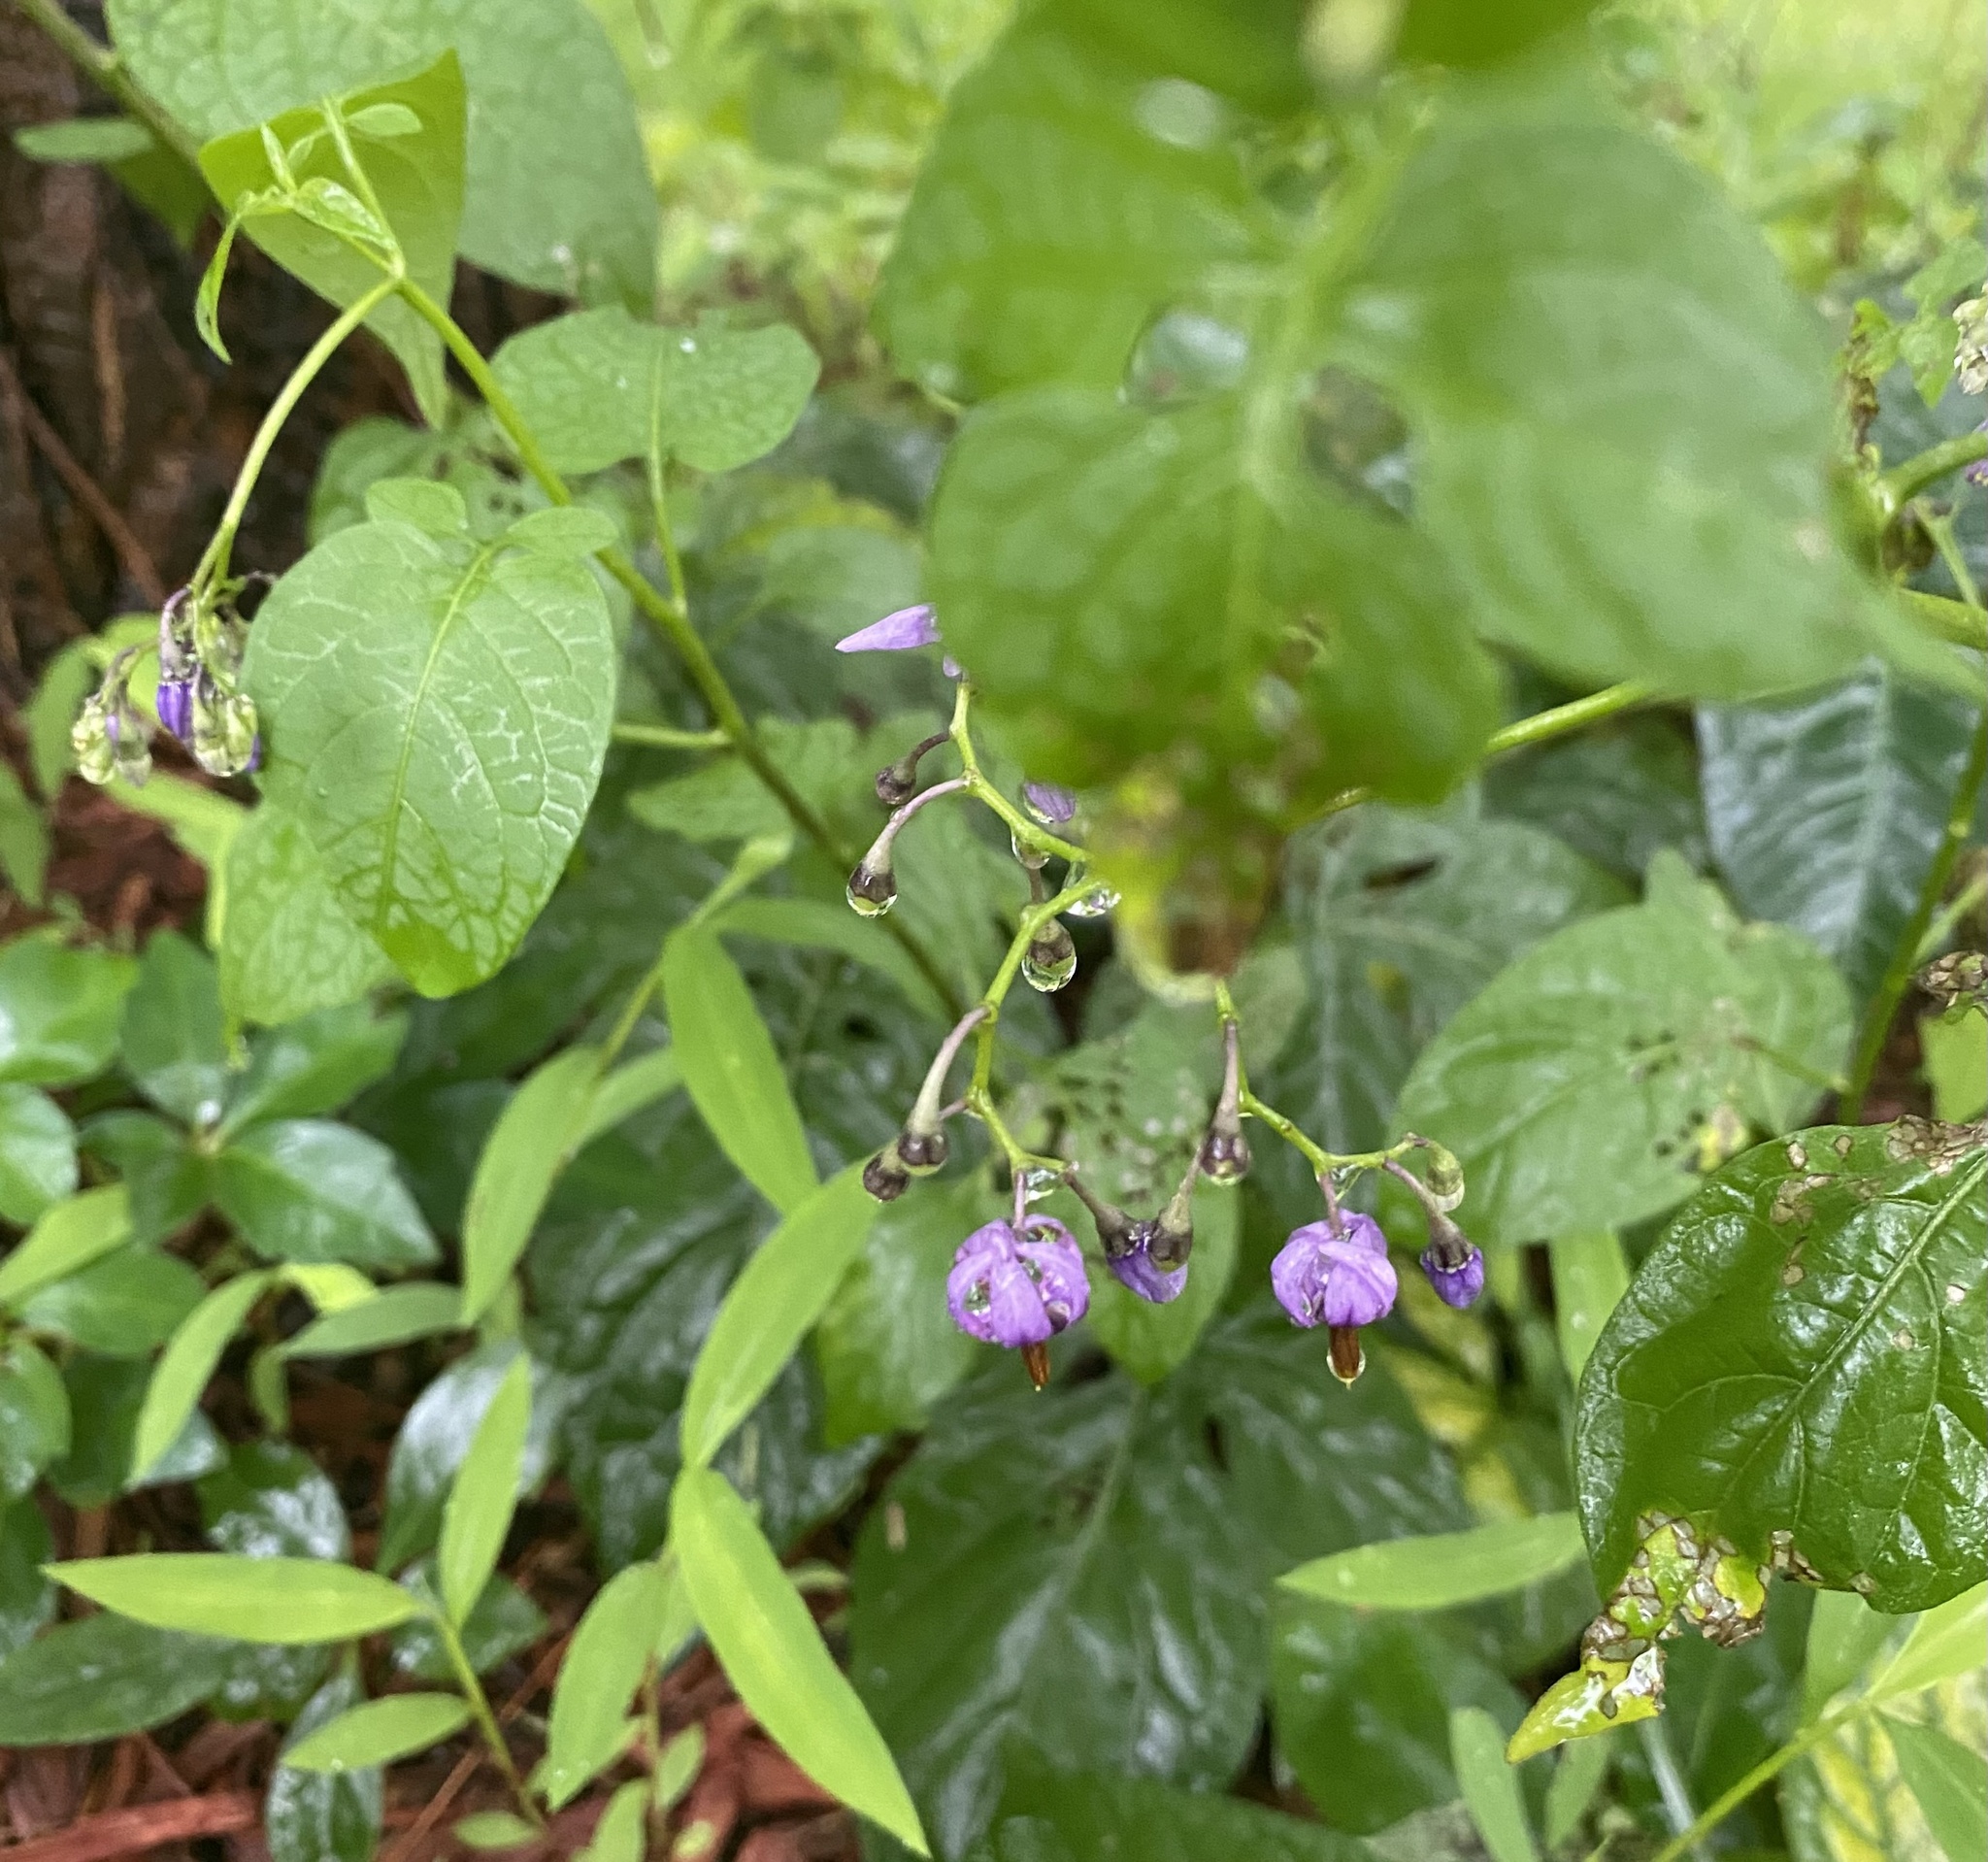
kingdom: Plantae
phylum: Tracheophyta
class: Magnoliopsida
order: Solanales
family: Solanaceae
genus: Solanum
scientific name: Solanum dulcamara
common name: Climbing nightshade
